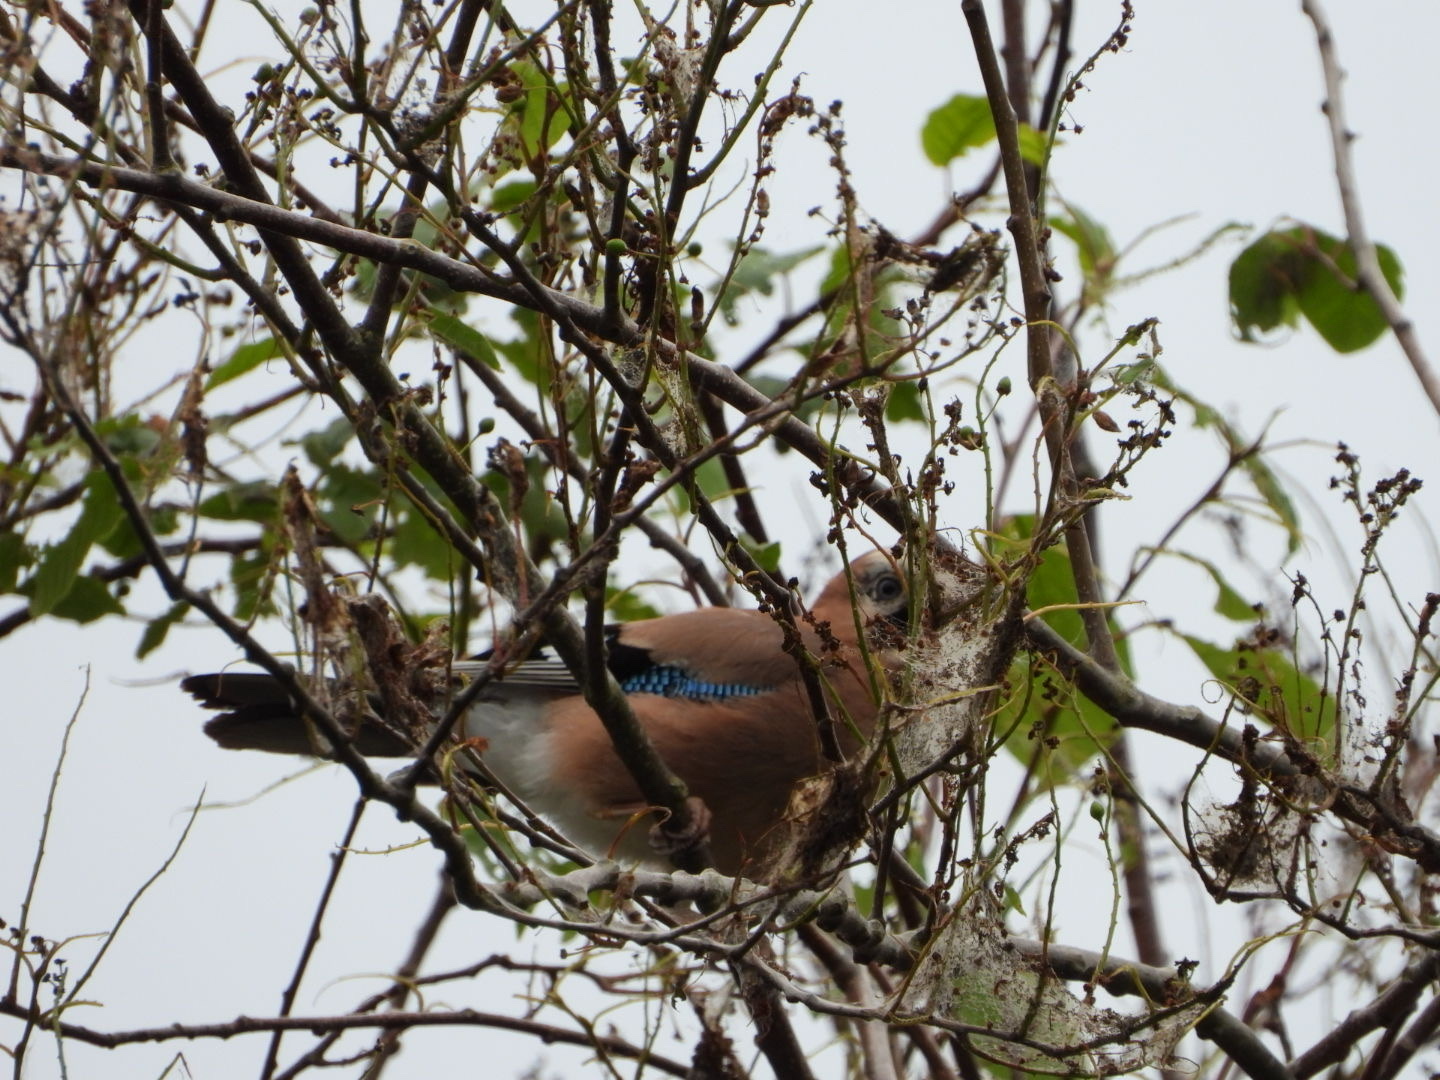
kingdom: Animalia
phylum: Chordata
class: Aves
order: Passeriformes
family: Corvidae
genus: Garrulus
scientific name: Garrulus glandarius
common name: Eurasian jay
